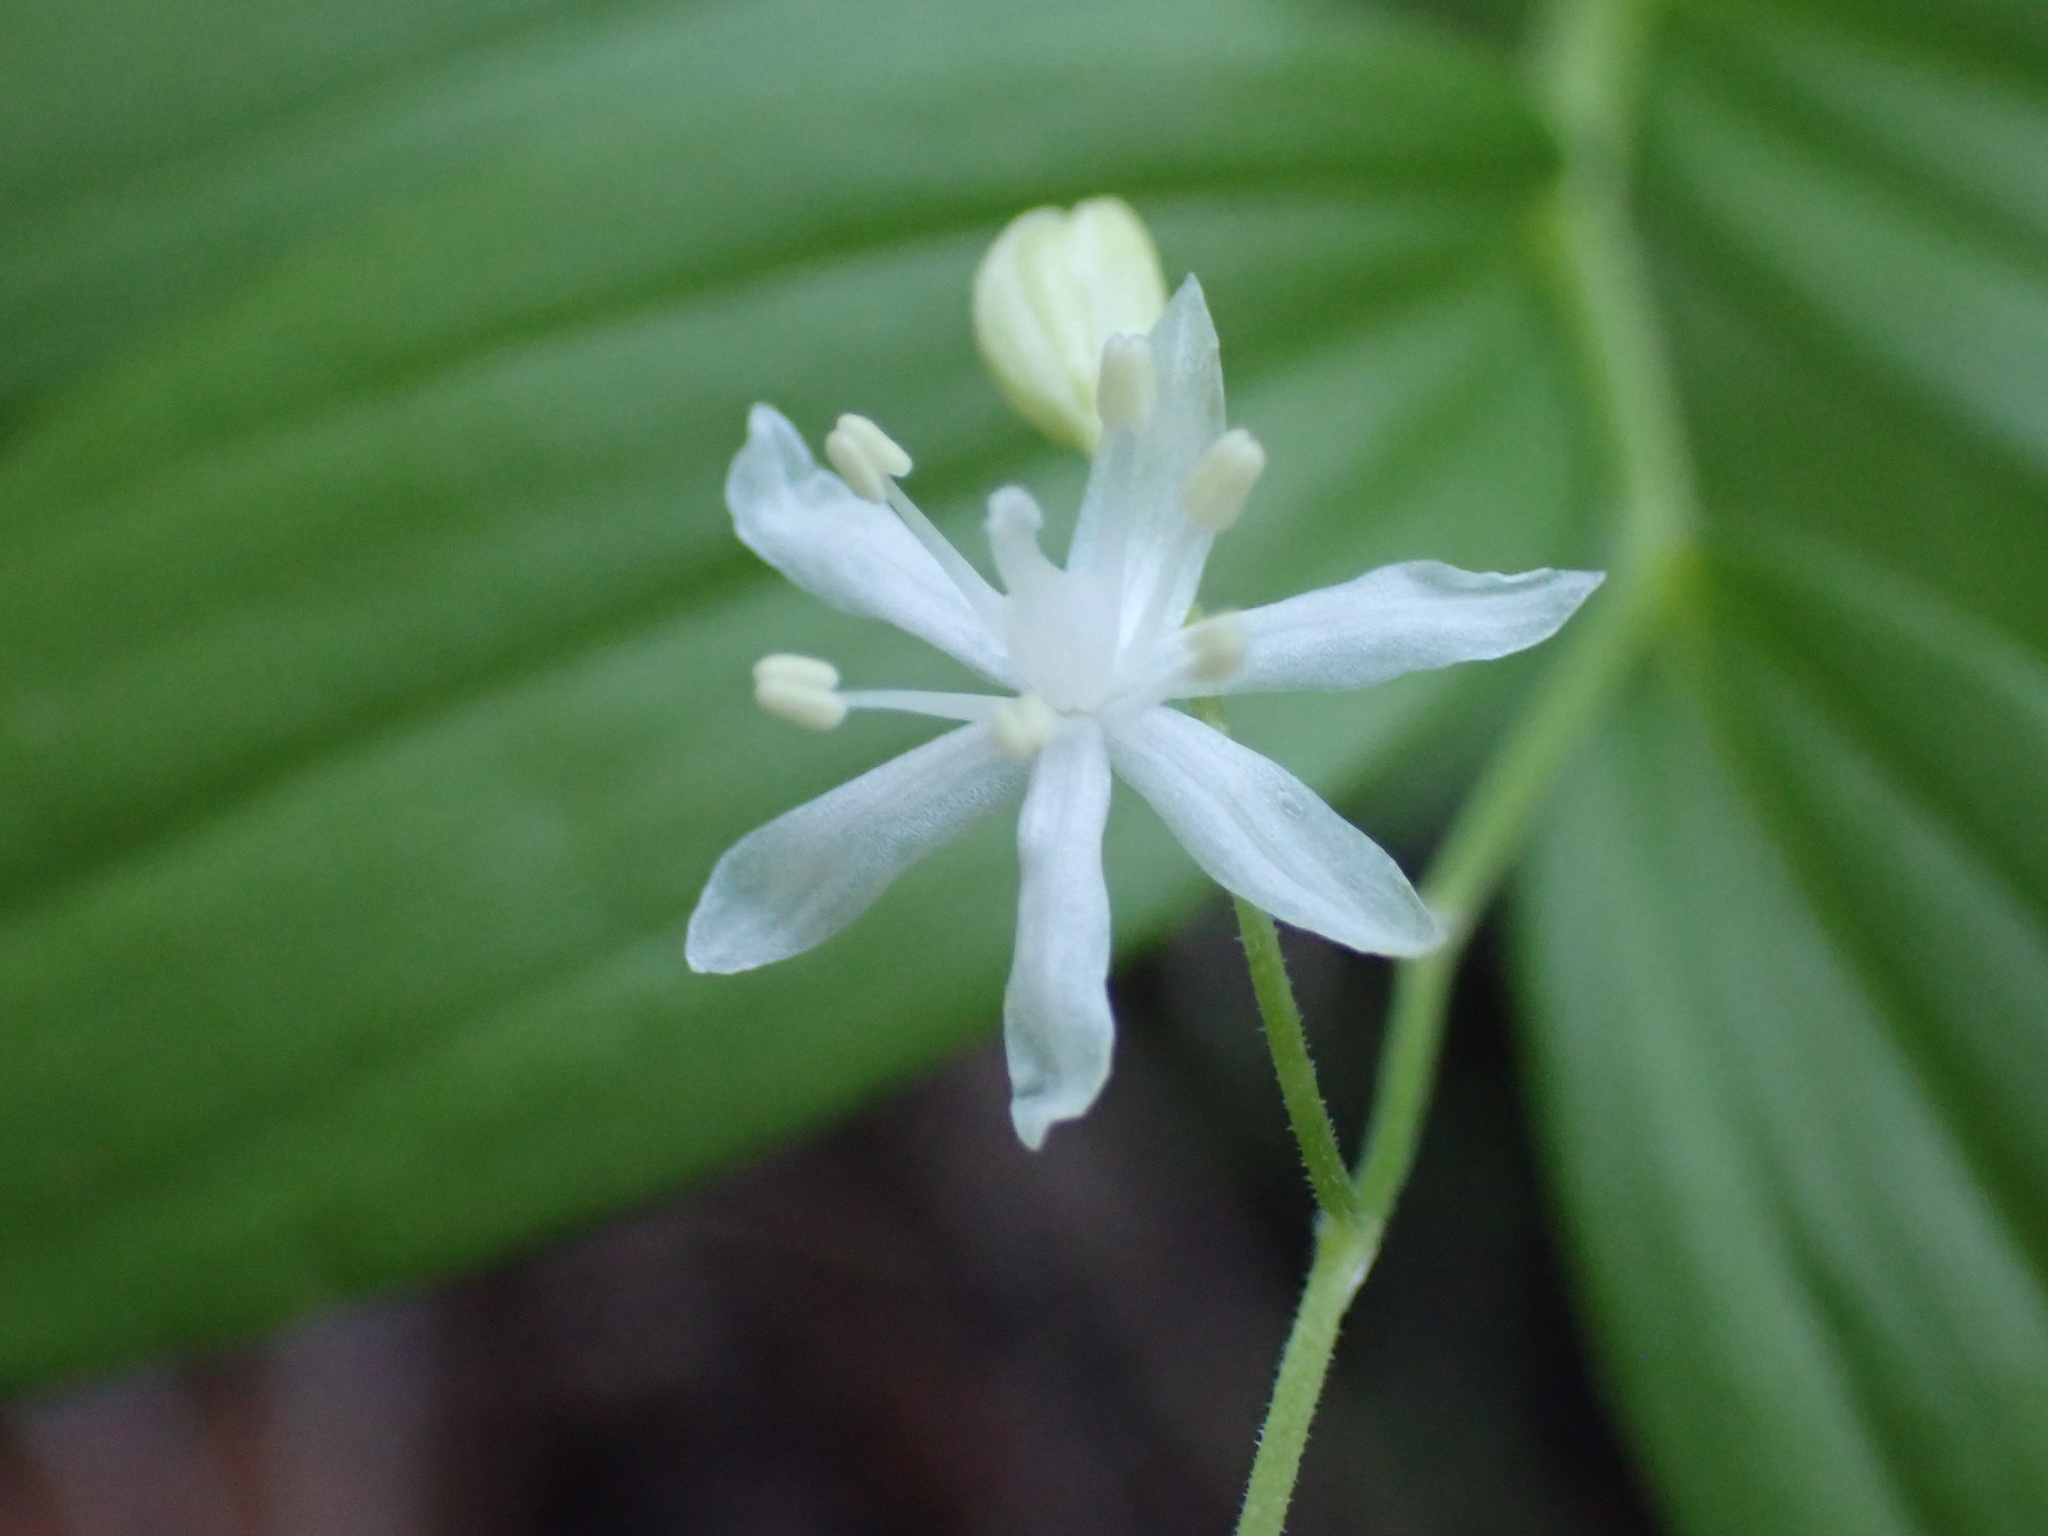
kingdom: Plantae
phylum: Tracheophyta
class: Liliopsida
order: Asparagales
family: Asparagaceae
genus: Maianthemum
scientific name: Maianthemum stellatum
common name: Little false solomon's seal
